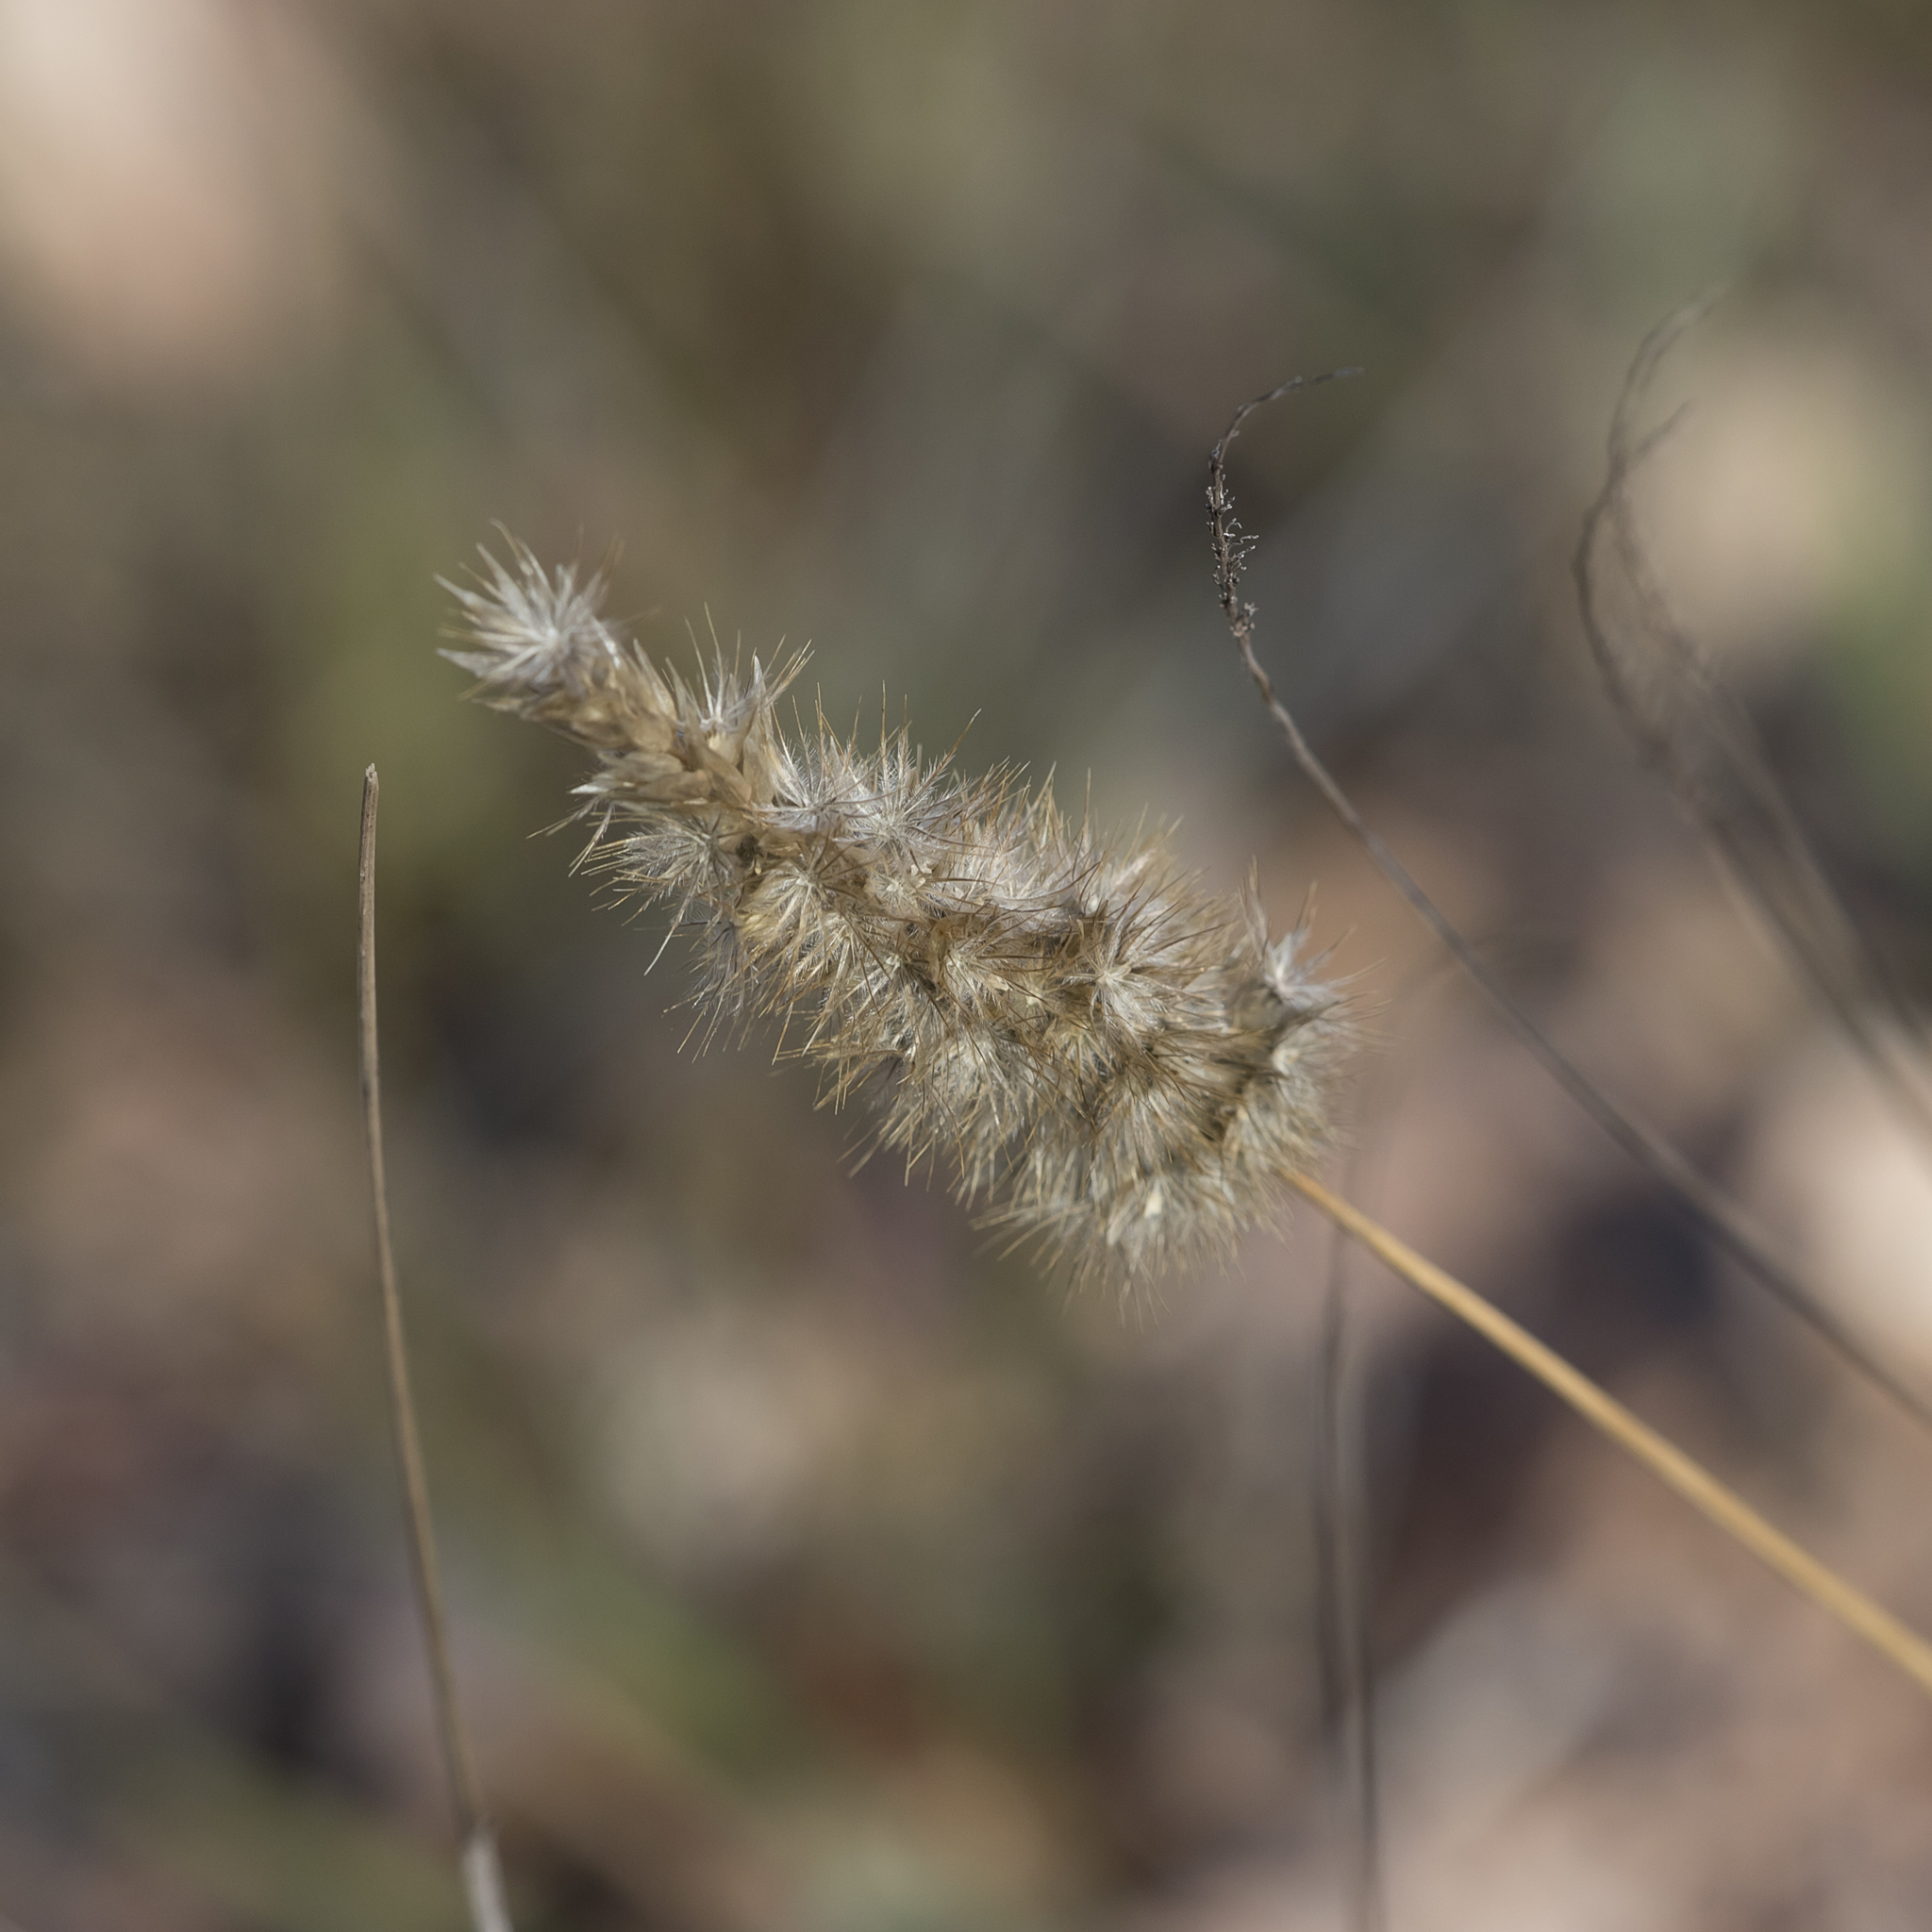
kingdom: Plantae
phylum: Tracheophyta
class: Liliopsida
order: Poales
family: Poaceae
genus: Enneapogon
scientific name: Enneapogon nigricans
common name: Pappus grass
